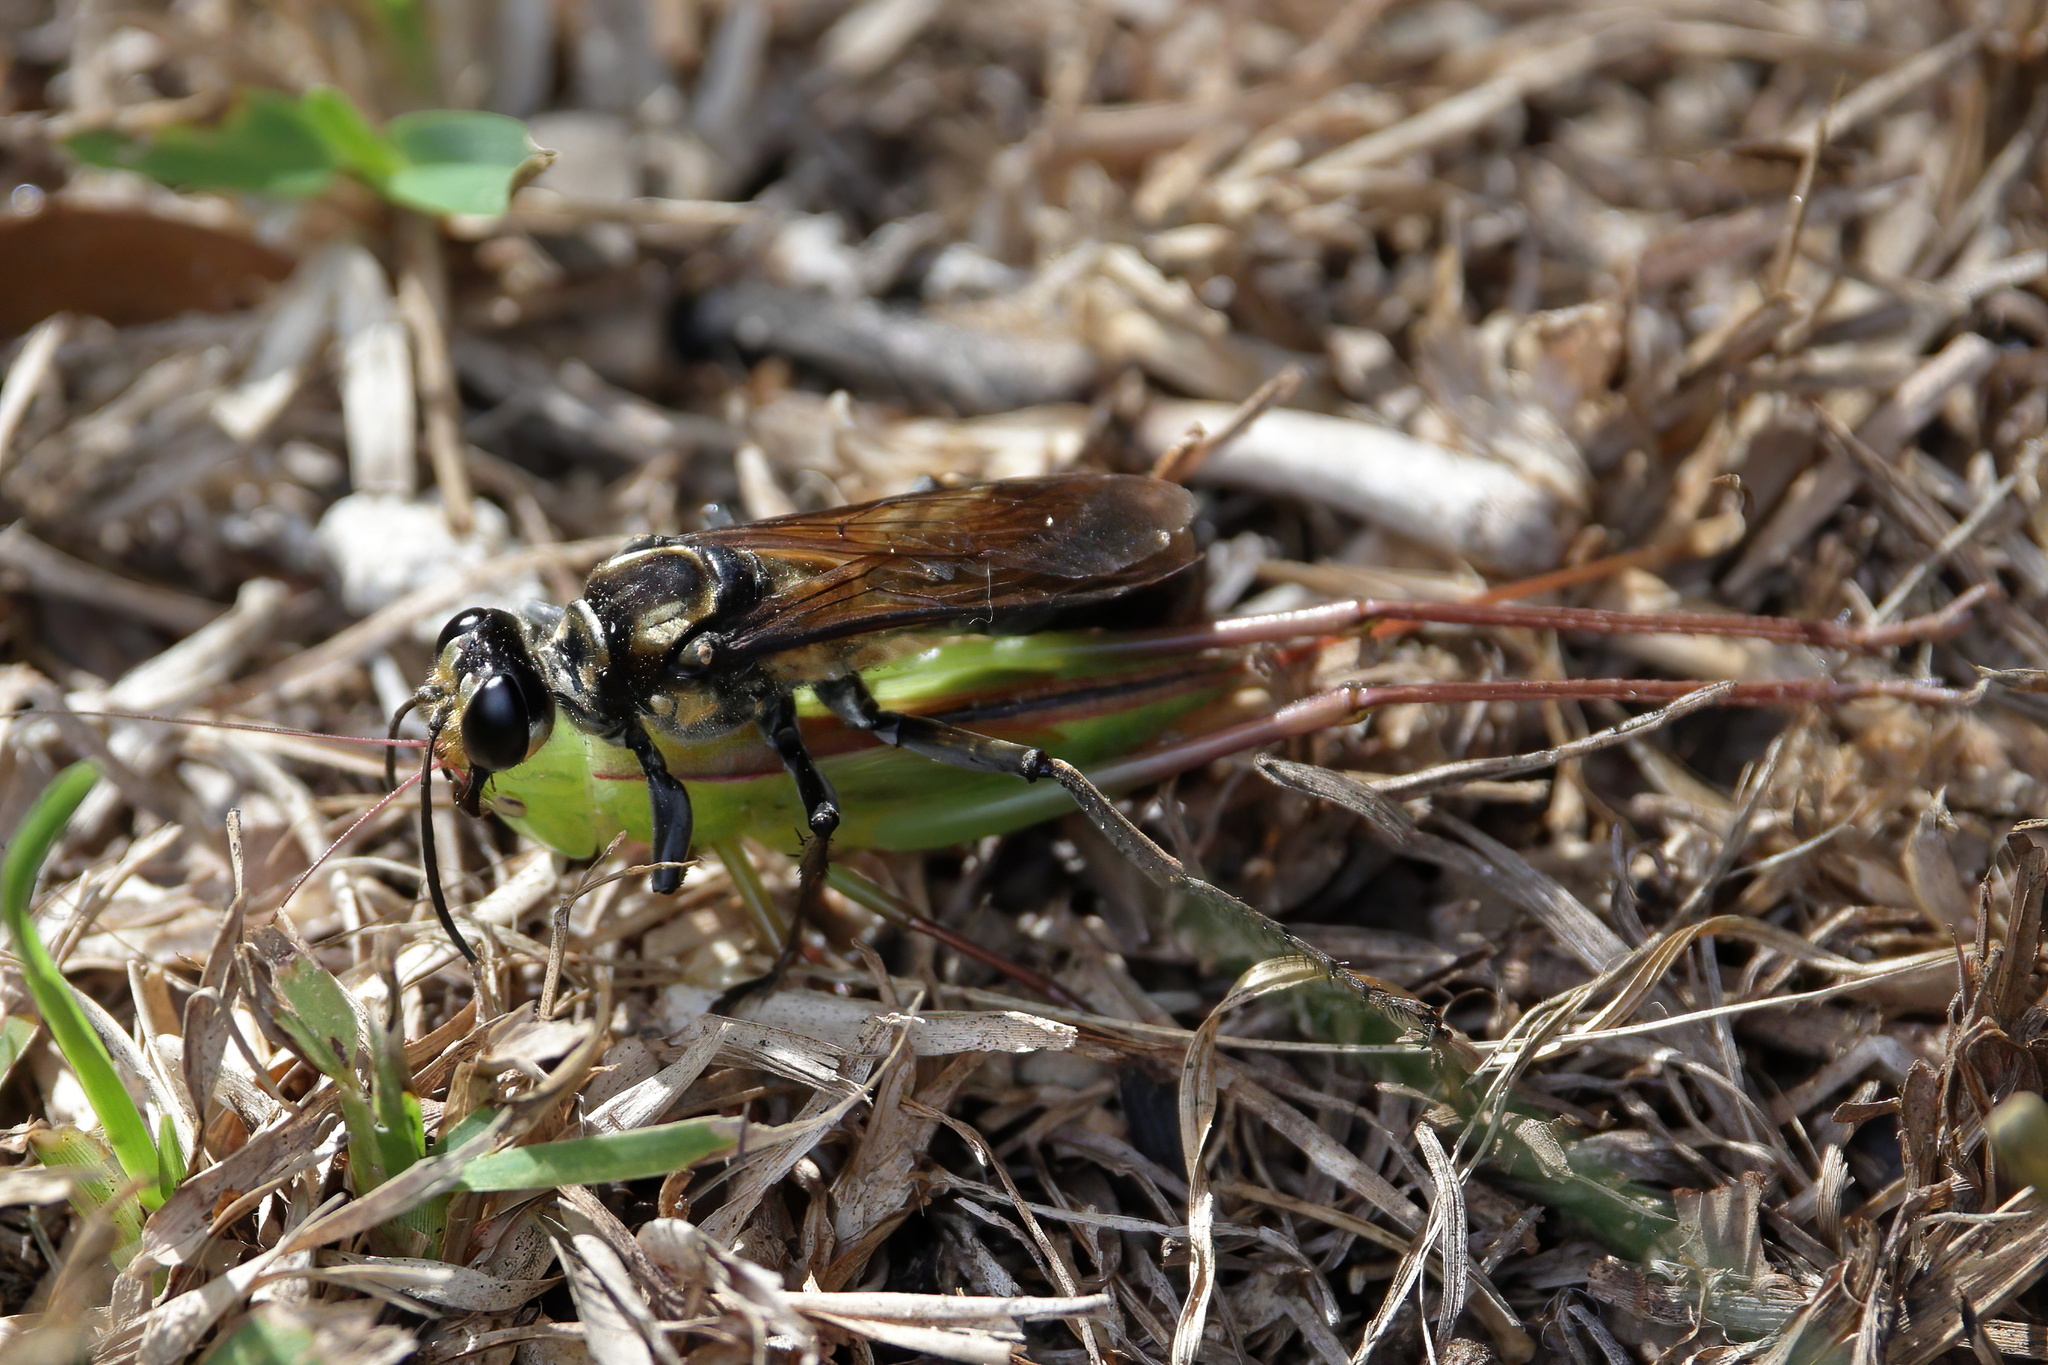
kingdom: Animalia
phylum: Arthropoda
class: Insecta
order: Hymenoptera
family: Sphecidae
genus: Sphex
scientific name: Sphex habenus
